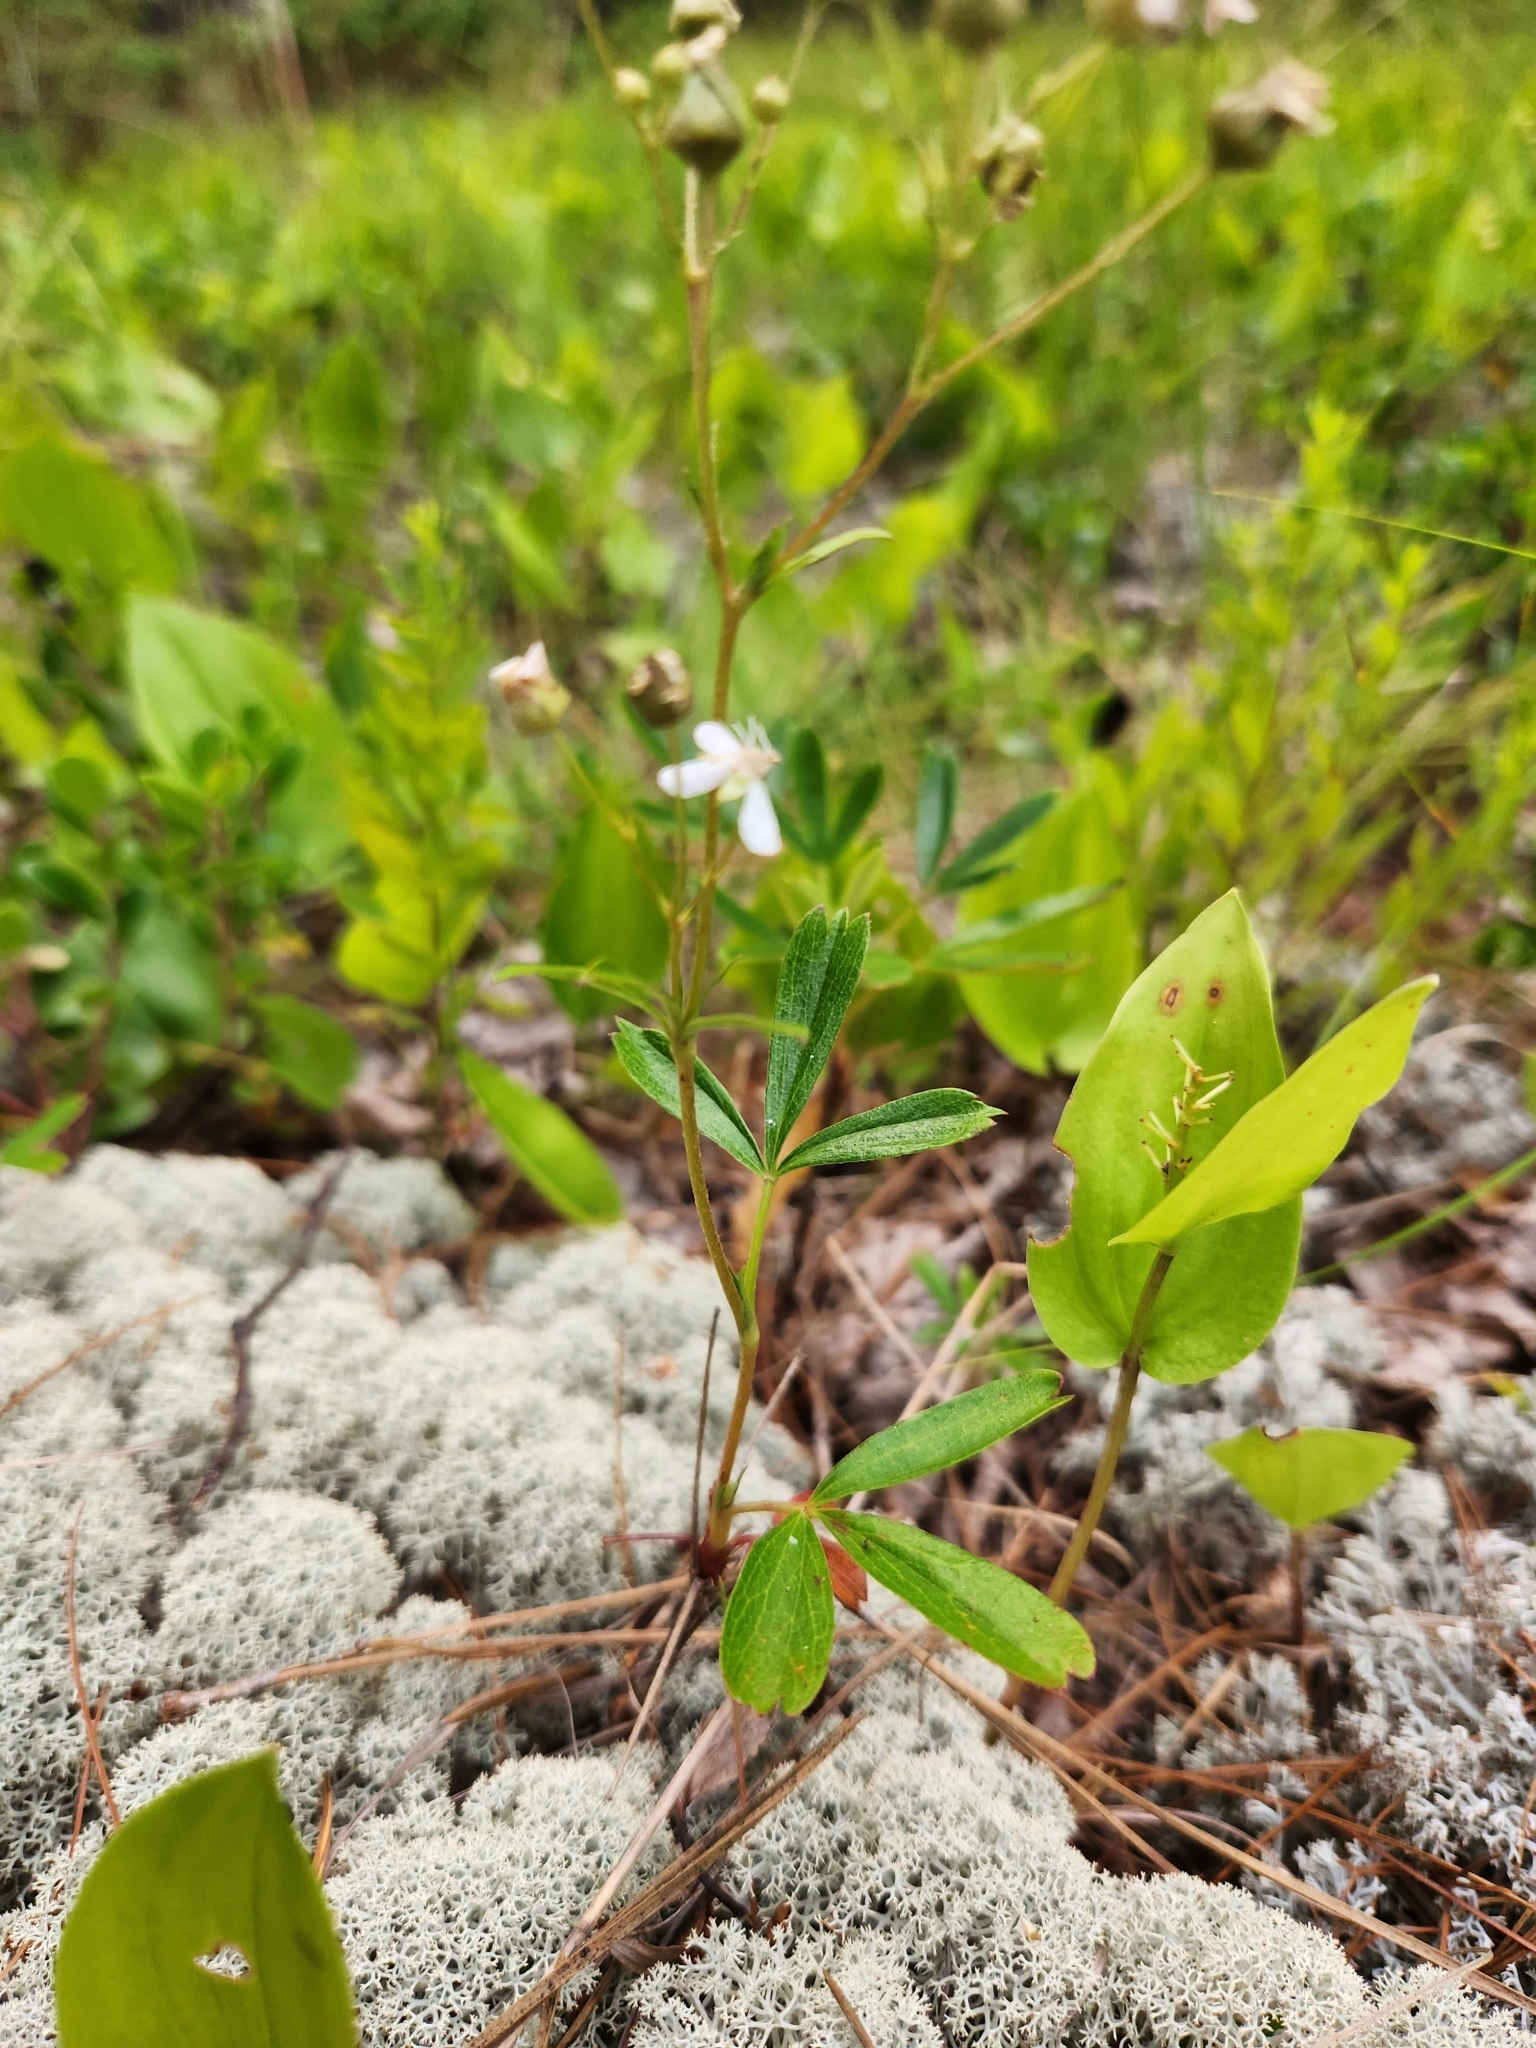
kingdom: Plantae
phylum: Tracheophyta
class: Magnoliopsida
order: Rosales
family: Rosaceae
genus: Sibbaldia
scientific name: Sibbaldia tridentata
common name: Three-toothed cinquefoil
